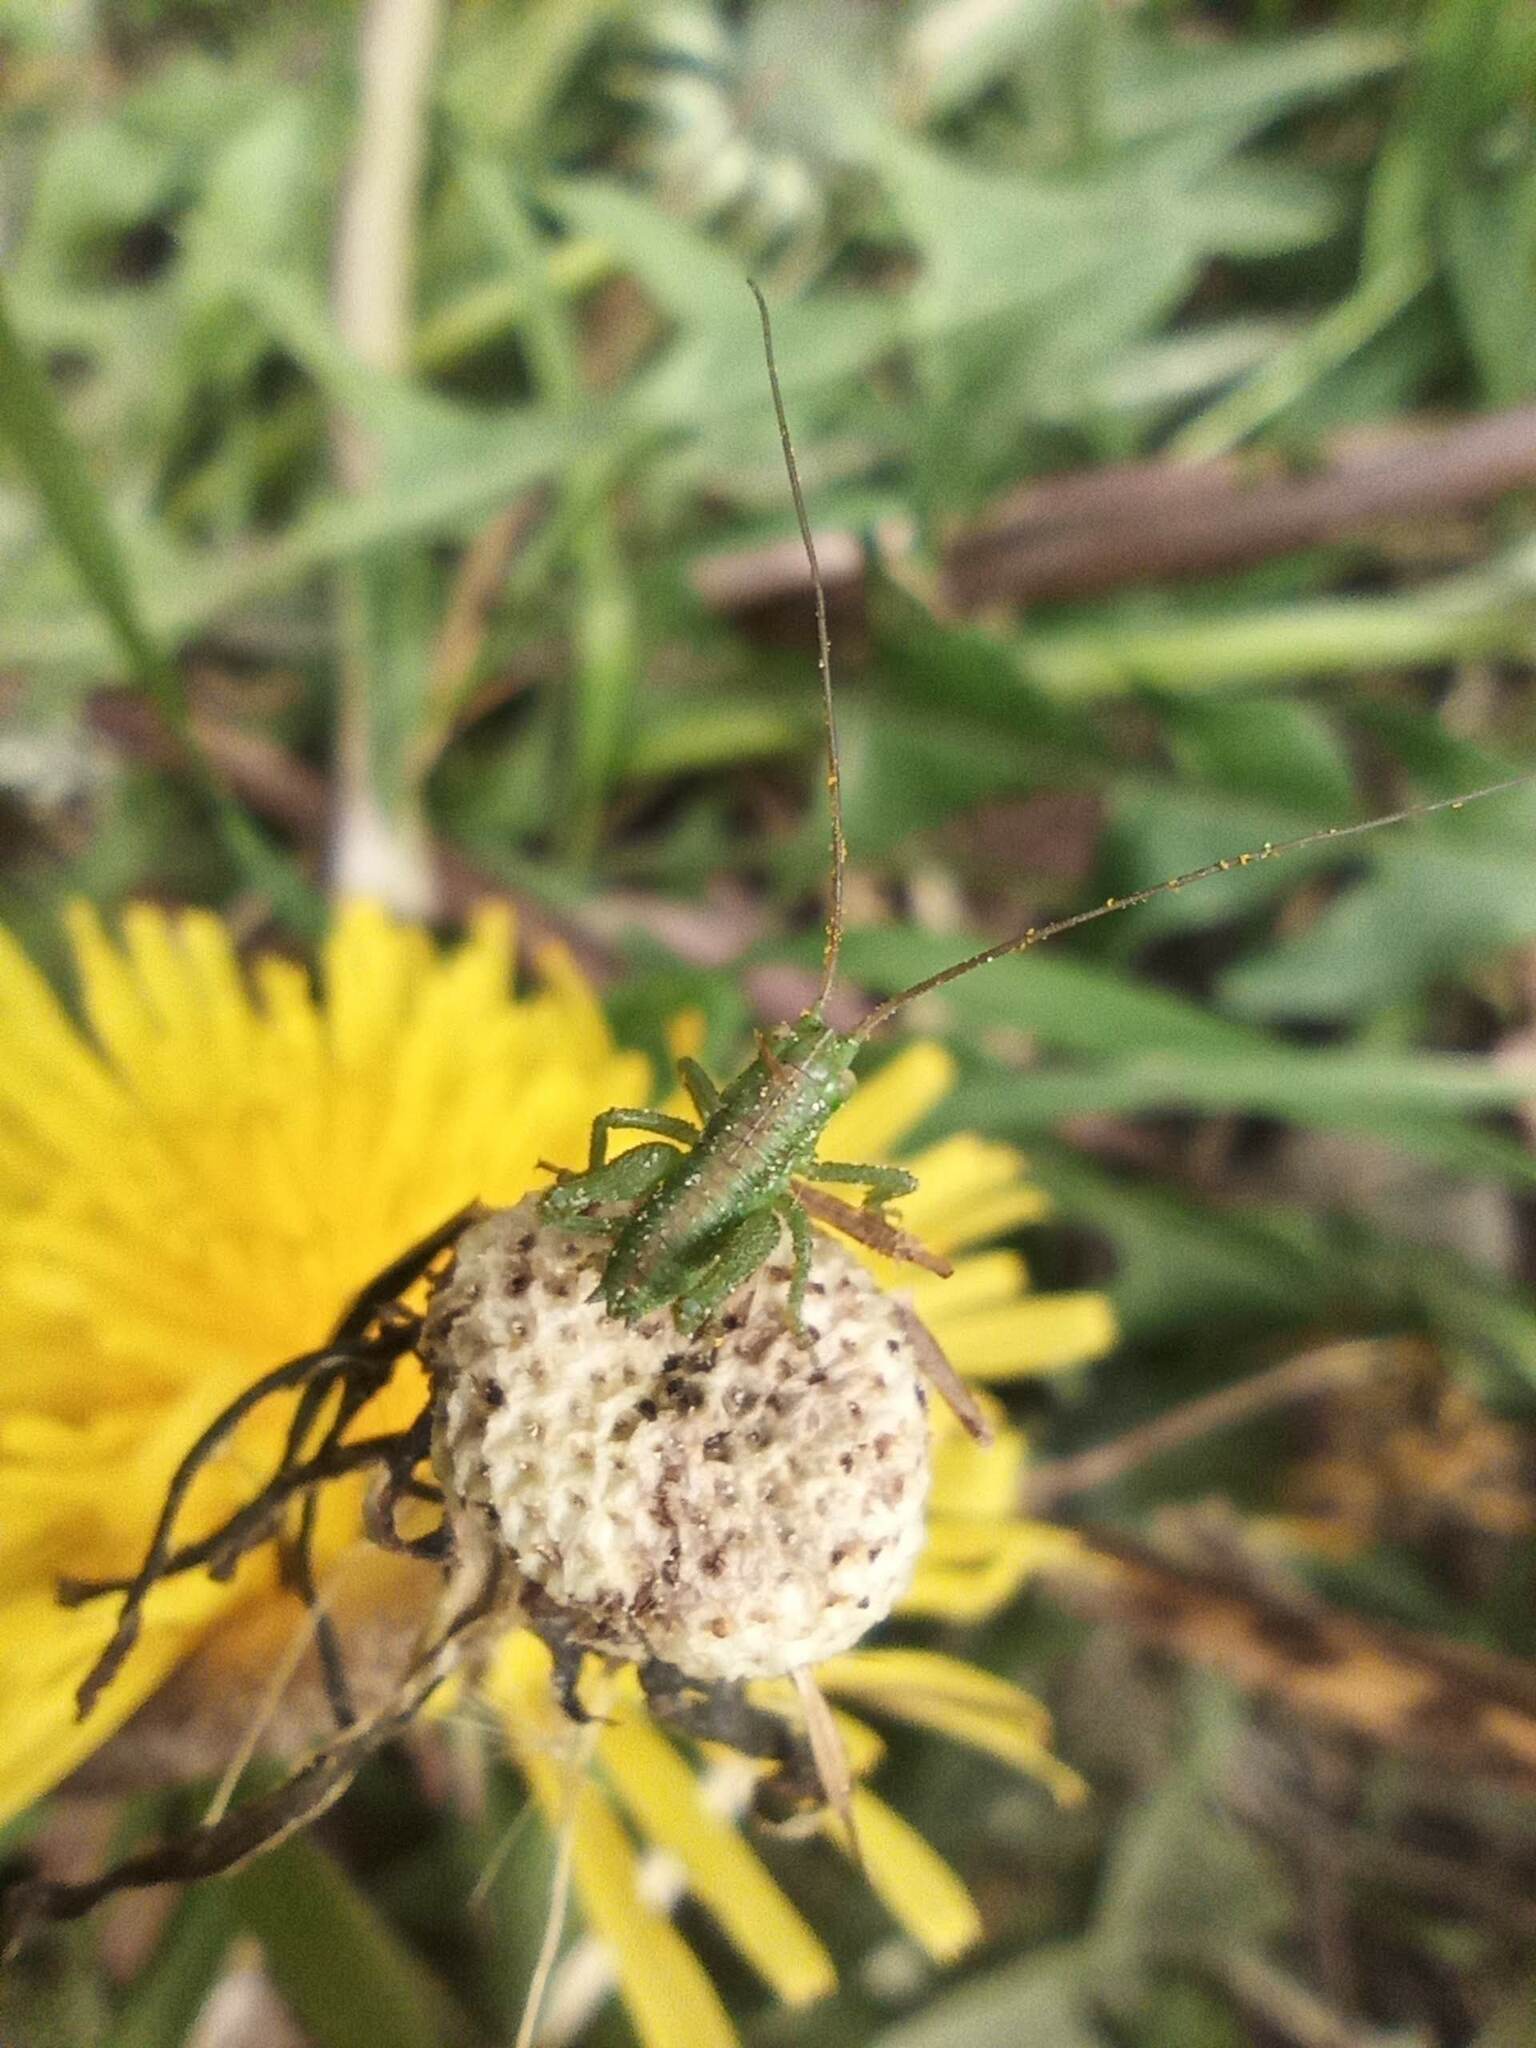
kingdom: Animalia
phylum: Arthropoda
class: Insecta
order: Orthoptera
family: Tettigoniidae
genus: Tettigonia
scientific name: Tettigonia viridissima
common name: Great green bush-cricket
